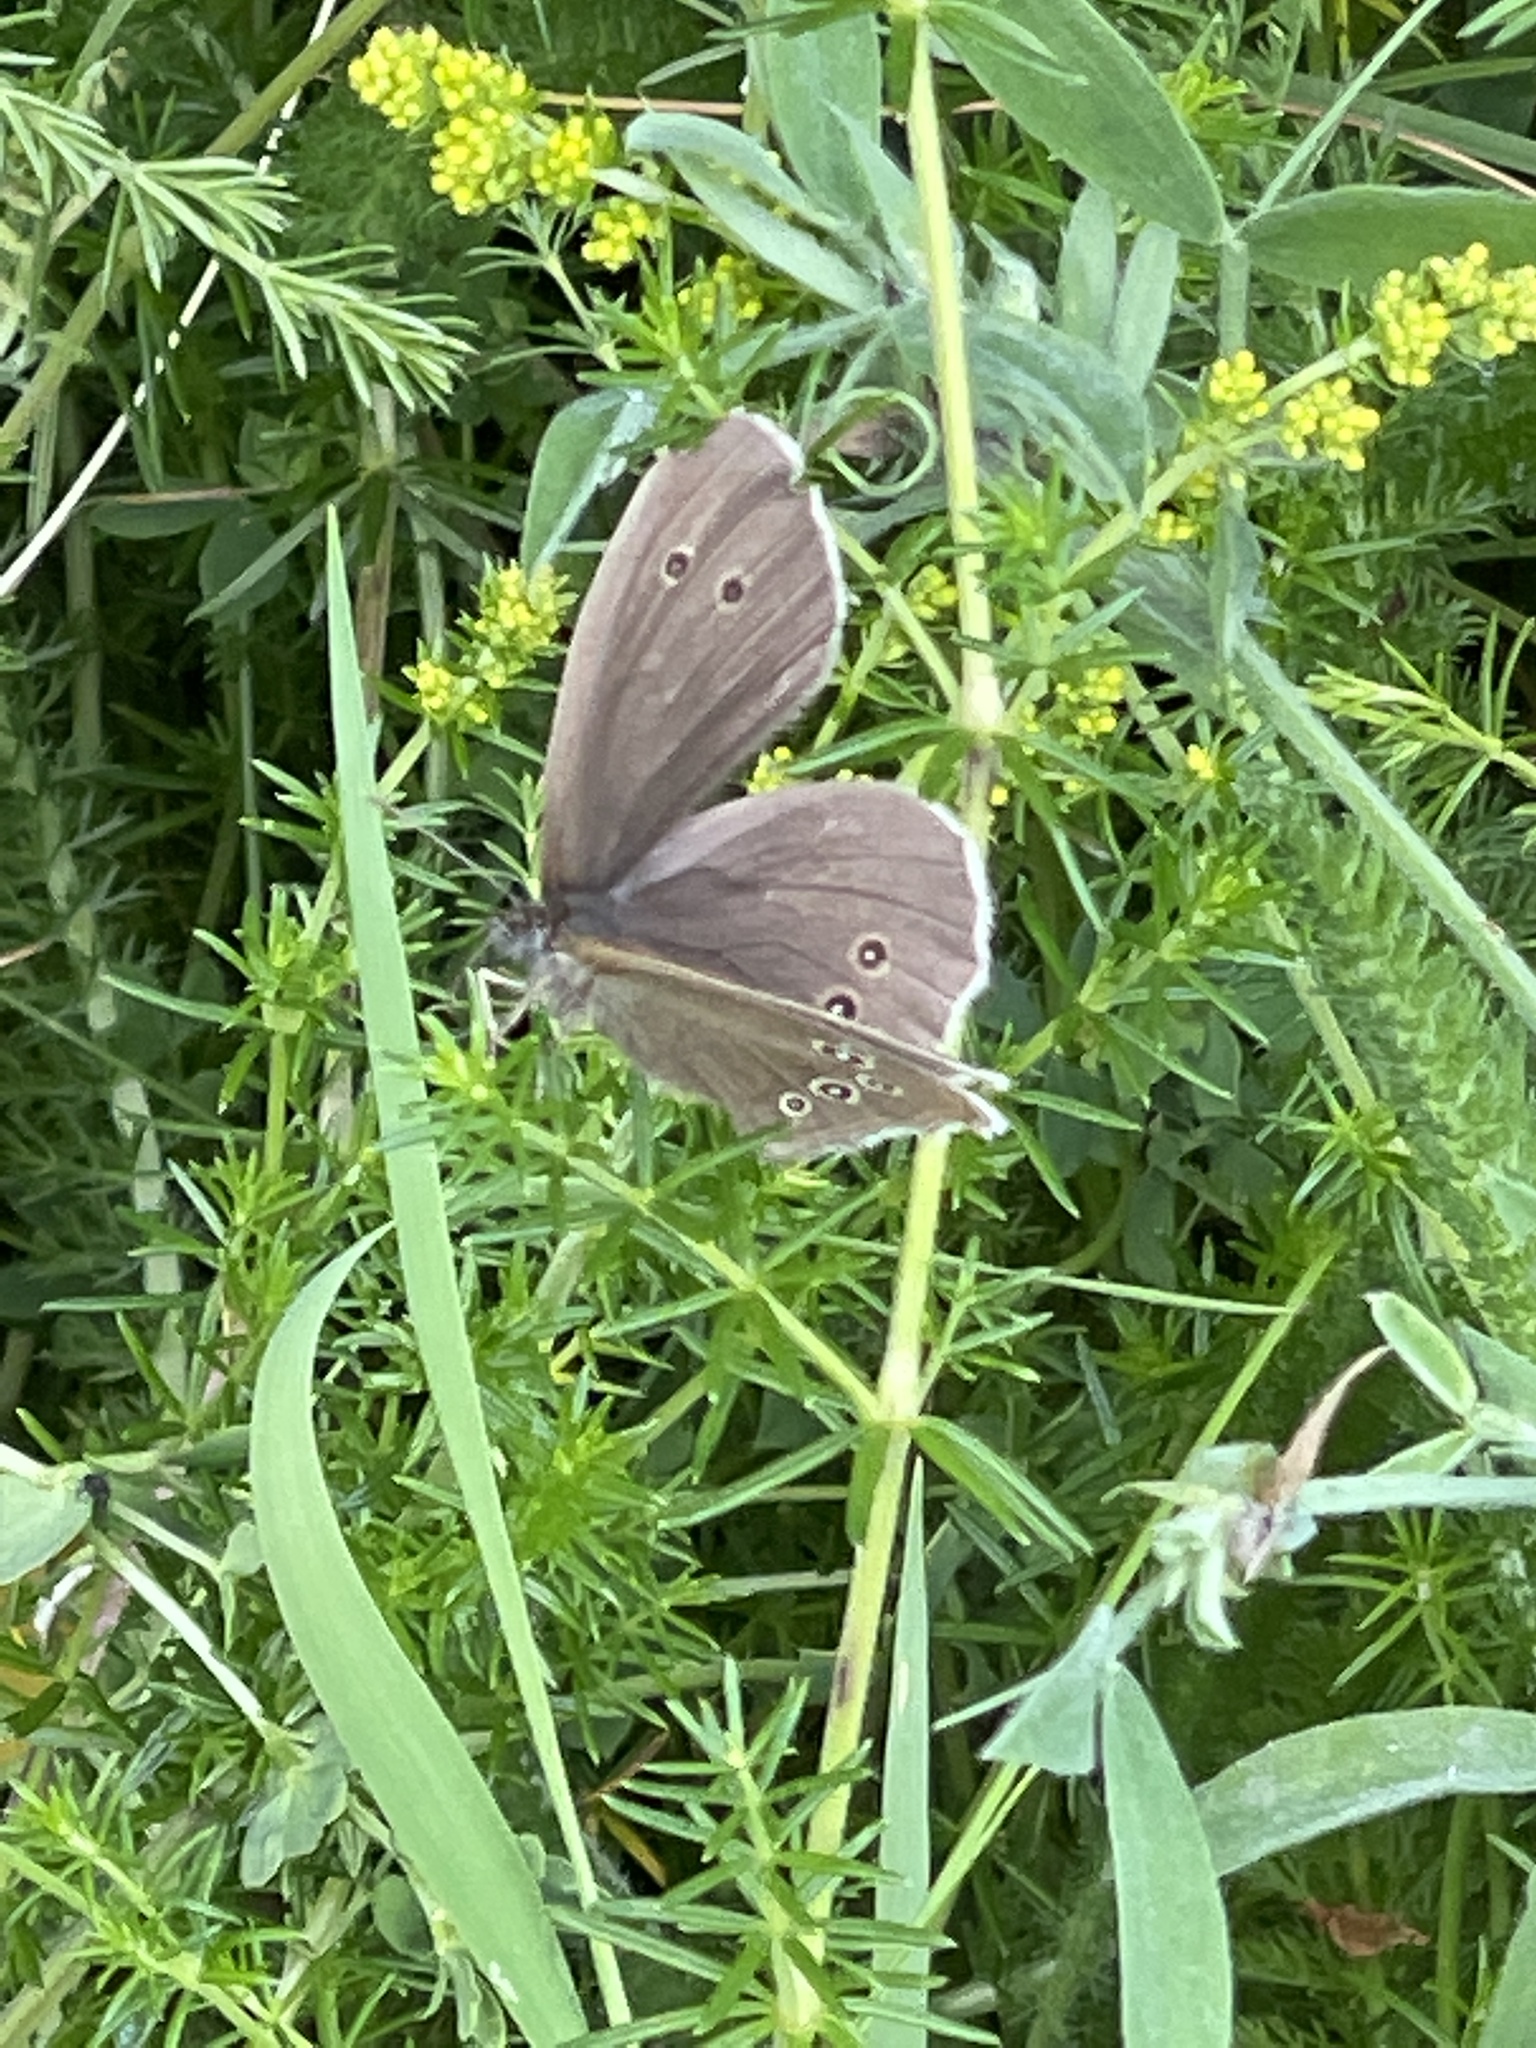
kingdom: Animalia
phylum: Arthropoda
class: Insecta
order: Lepidoptera
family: Nymphalidae
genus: Aphantopus
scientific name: Aphantopus hyperantus
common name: Ringlet
